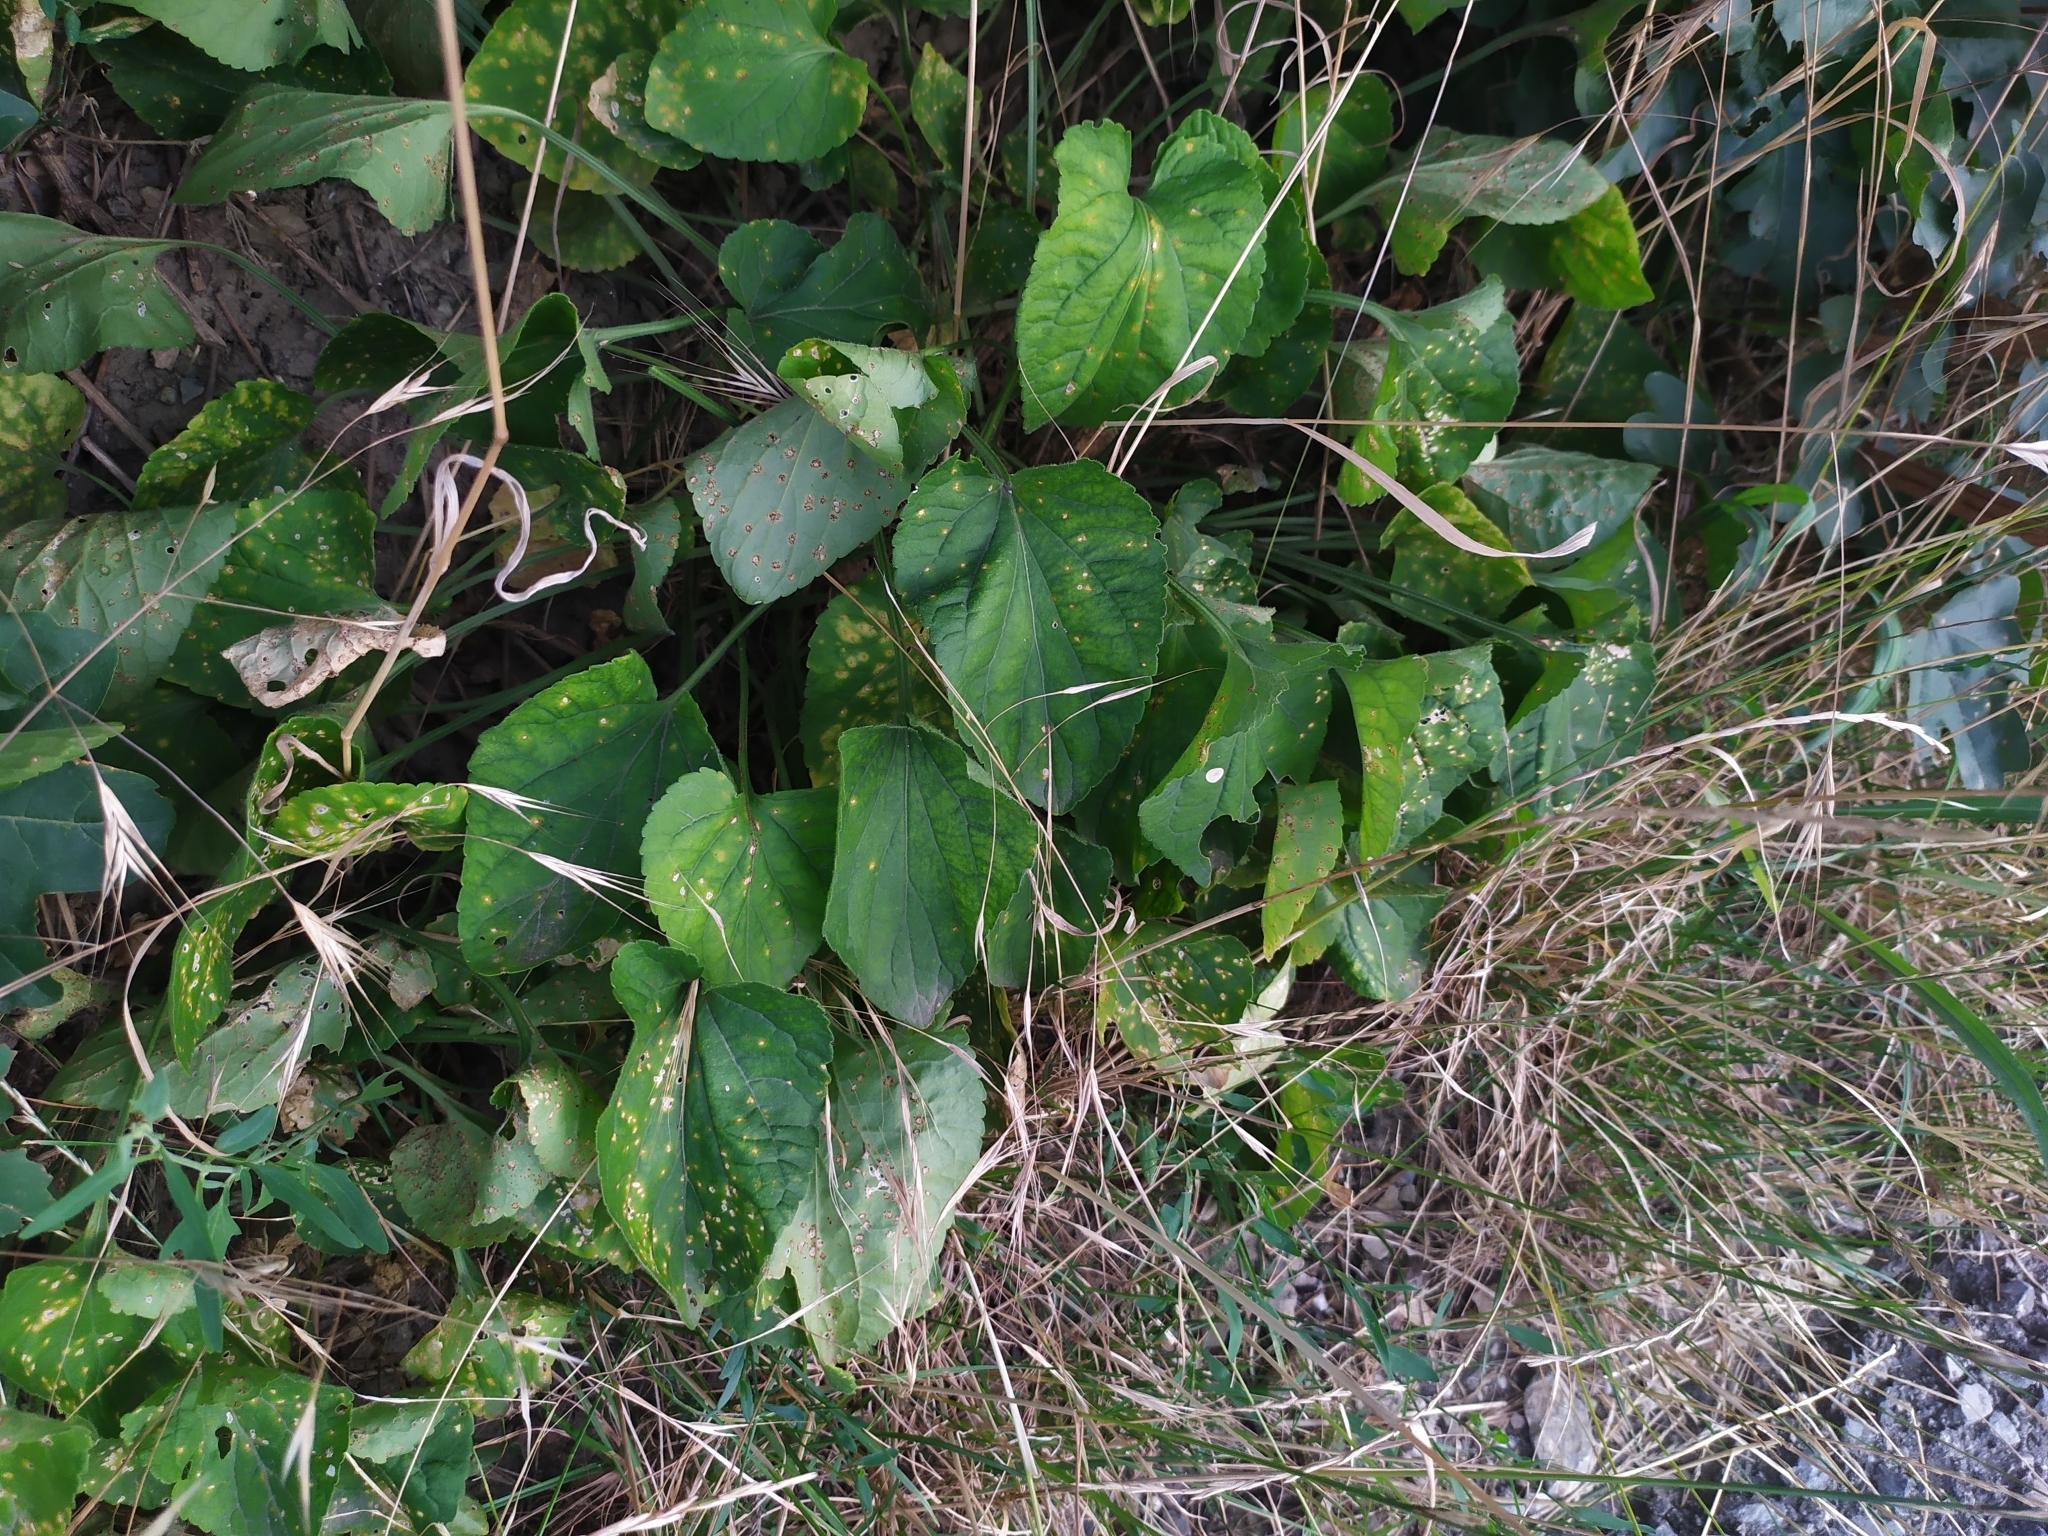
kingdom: Fungi
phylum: Basidiomycota
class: Pucciniomycetes
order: Pucciniales
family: Pucciniaceae
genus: Puccinia
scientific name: Puccinia violae
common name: Violet rust
